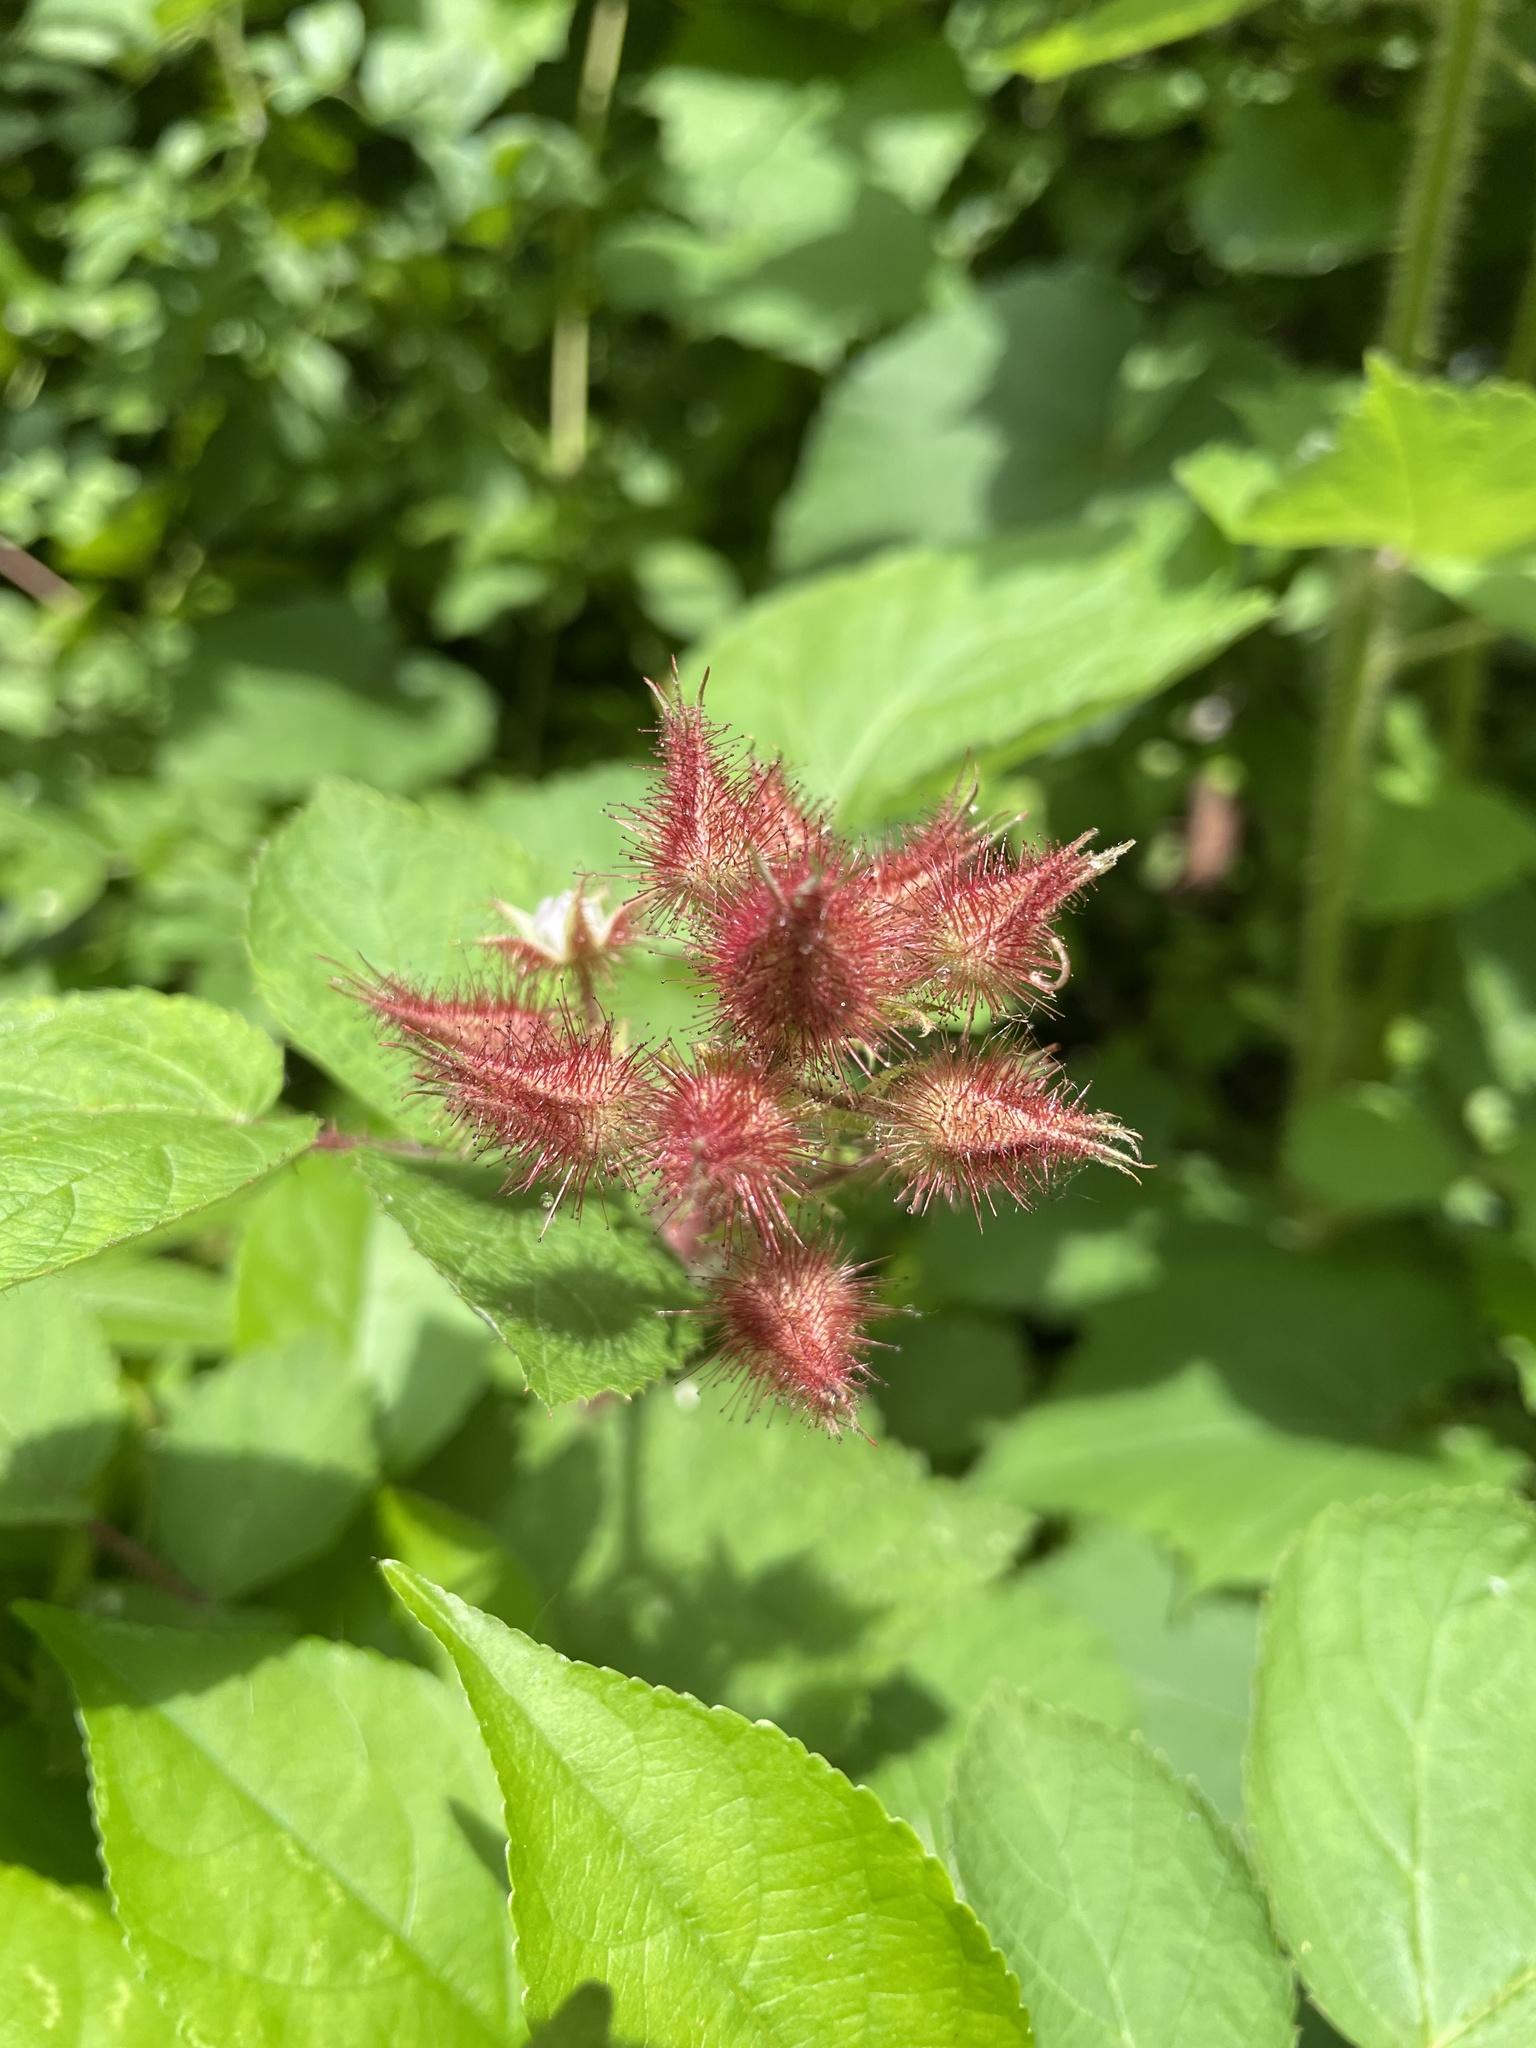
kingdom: Plantae
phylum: Tracheophyta
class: Magnoliopsida
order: Rosales
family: Rosaceae
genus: Rubus
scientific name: Rubus phoenicolasius
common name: Japanese wineberry
